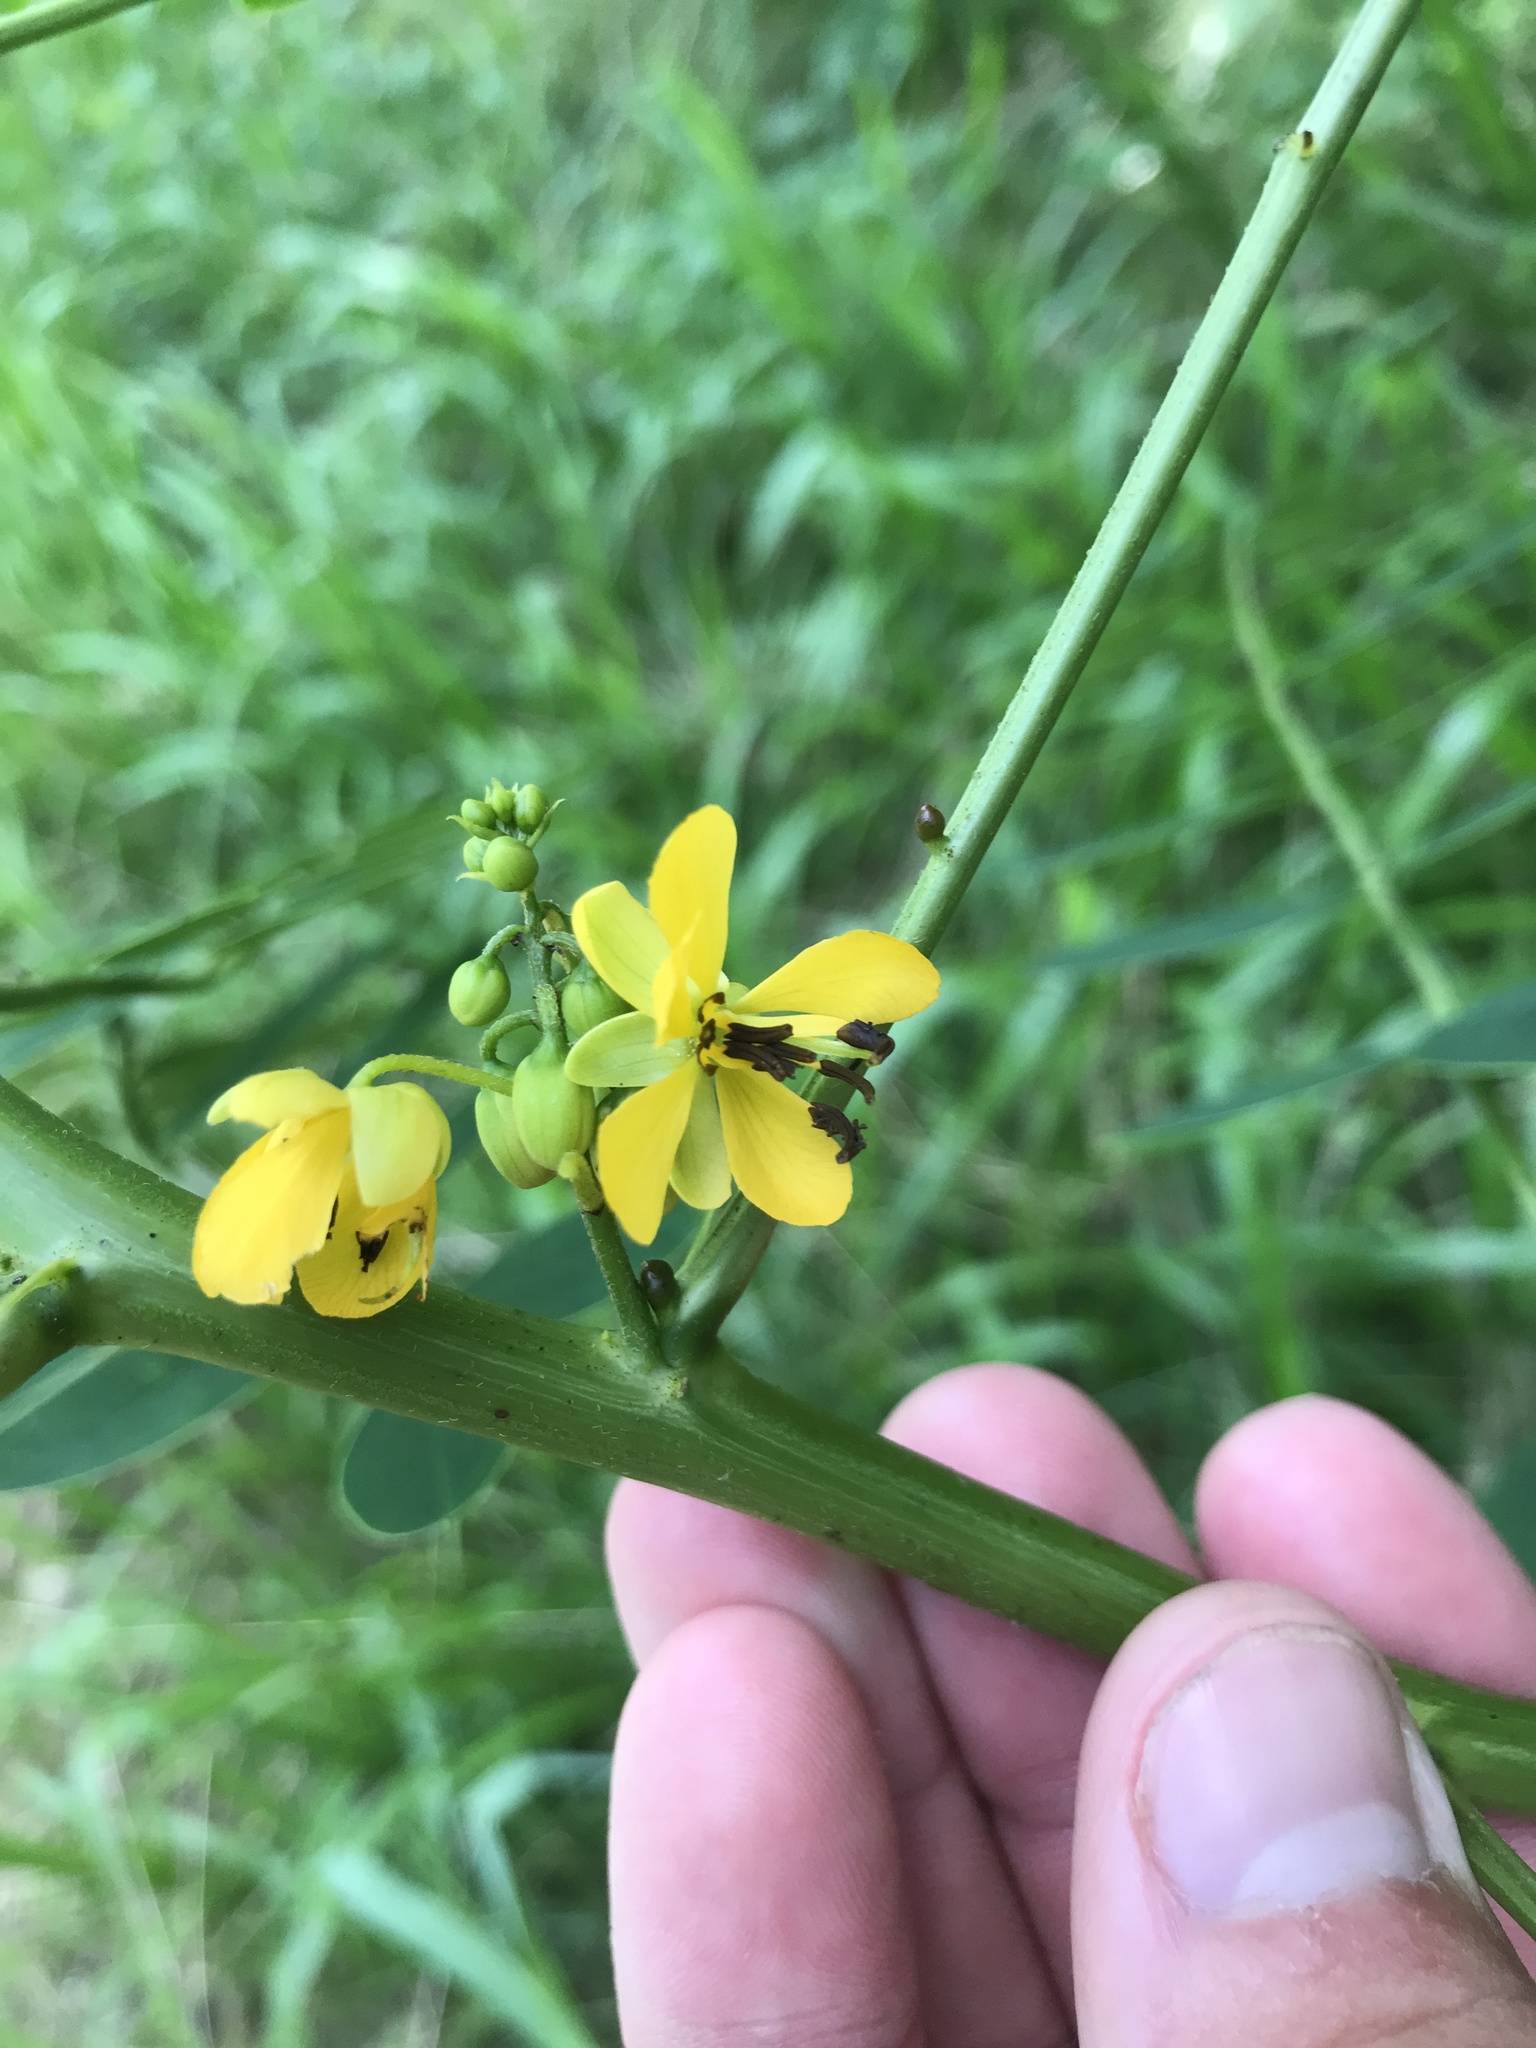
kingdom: Plantae
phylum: Tracheophyta
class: Magnoliopsida
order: Fabales
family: Fabaceae
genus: Senna
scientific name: Senna marilandica
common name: American senna
